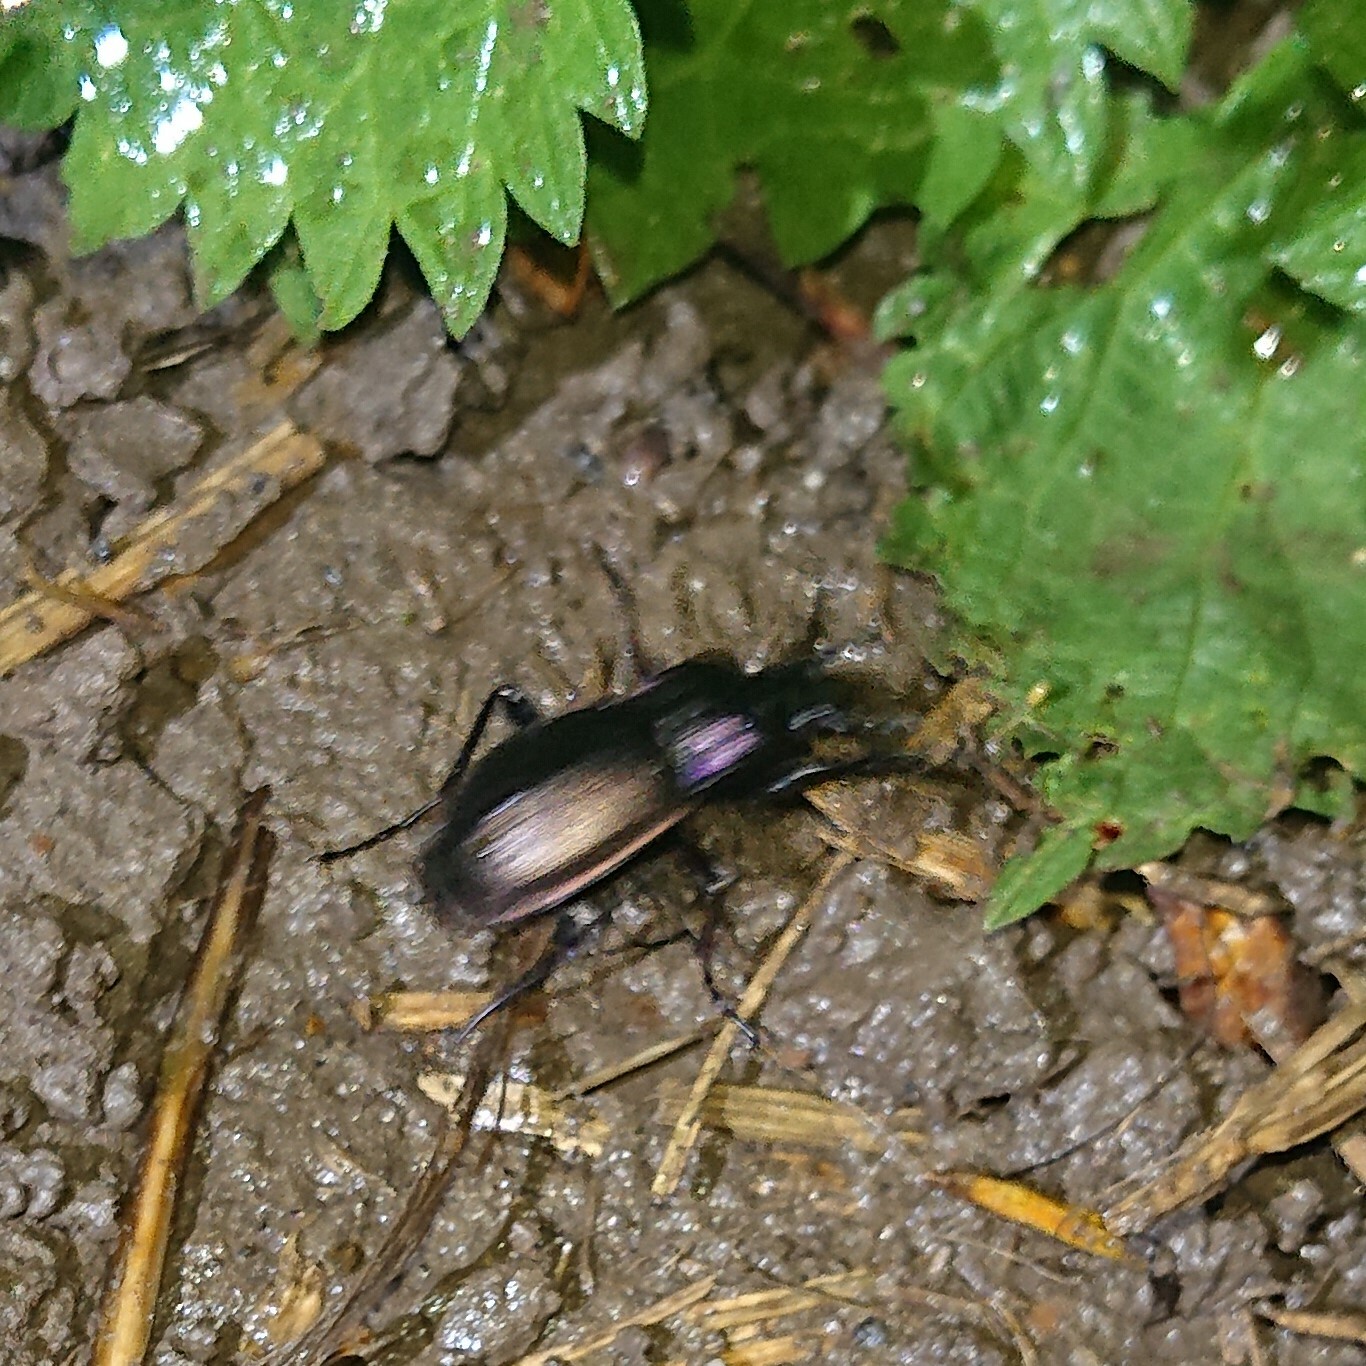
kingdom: Animalia
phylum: Arthropoda
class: Insecta
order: Coleoptera
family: Carabidae
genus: Carabus
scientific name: Carabus nemoralis
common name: European ground beetle
